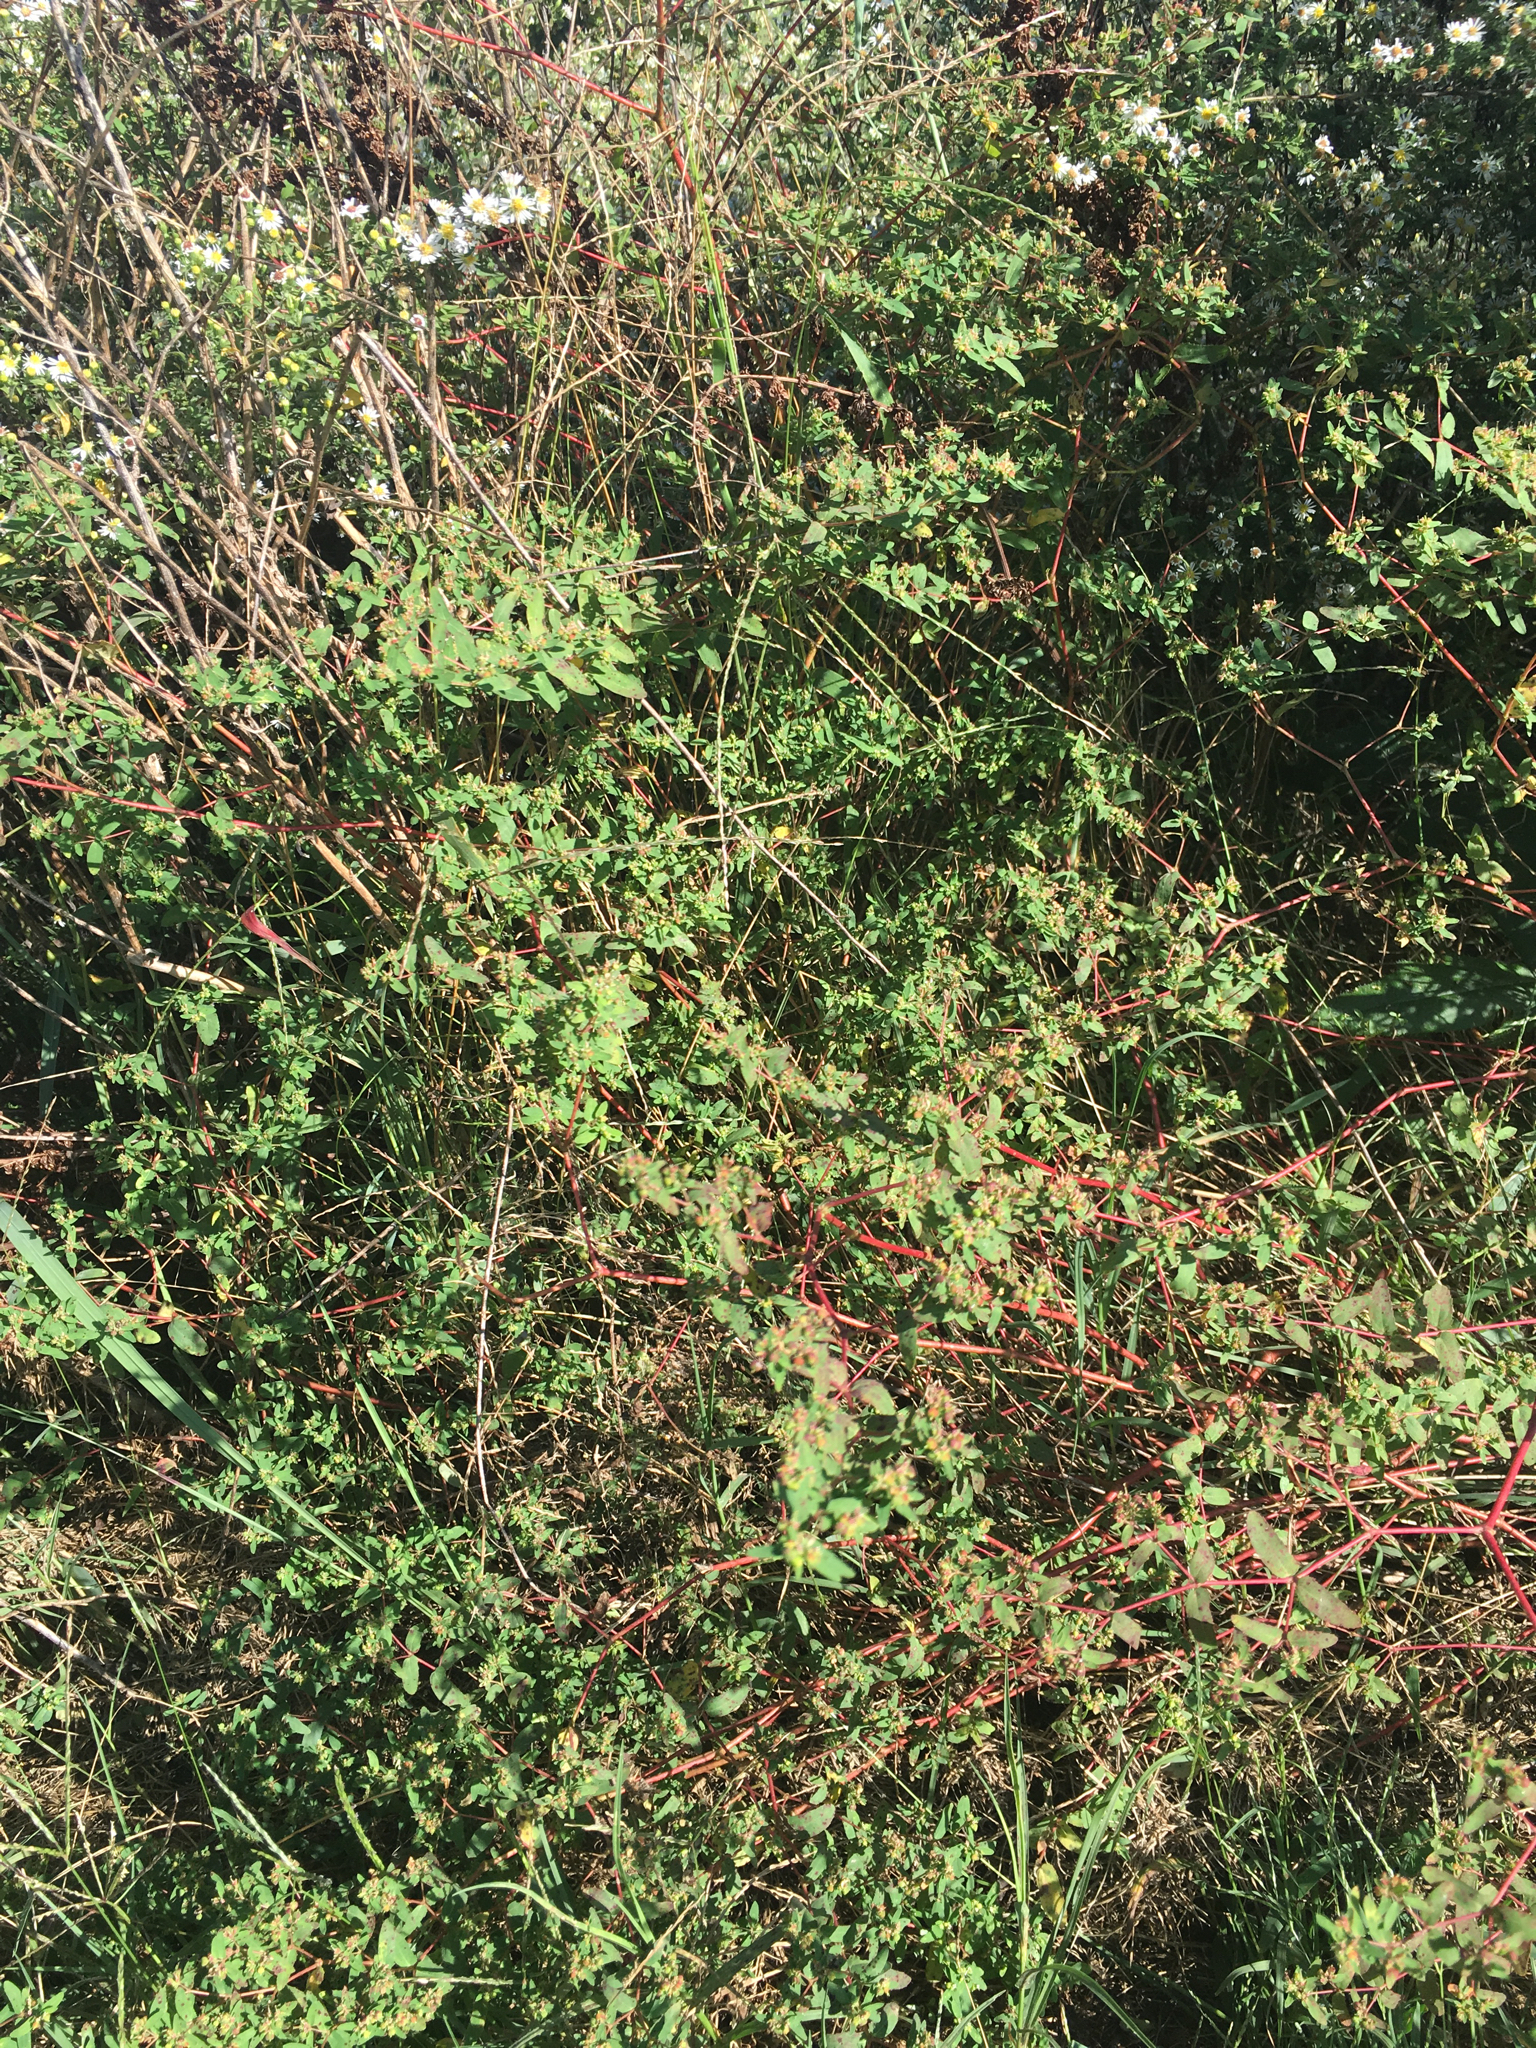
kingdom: Plantae
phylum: Tracheophyta
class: Magnoliopsida
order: Malpighiales
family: Euphorbiaceae
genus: Euphorbia
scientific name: Euphorbia nutans
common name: Eyebane
